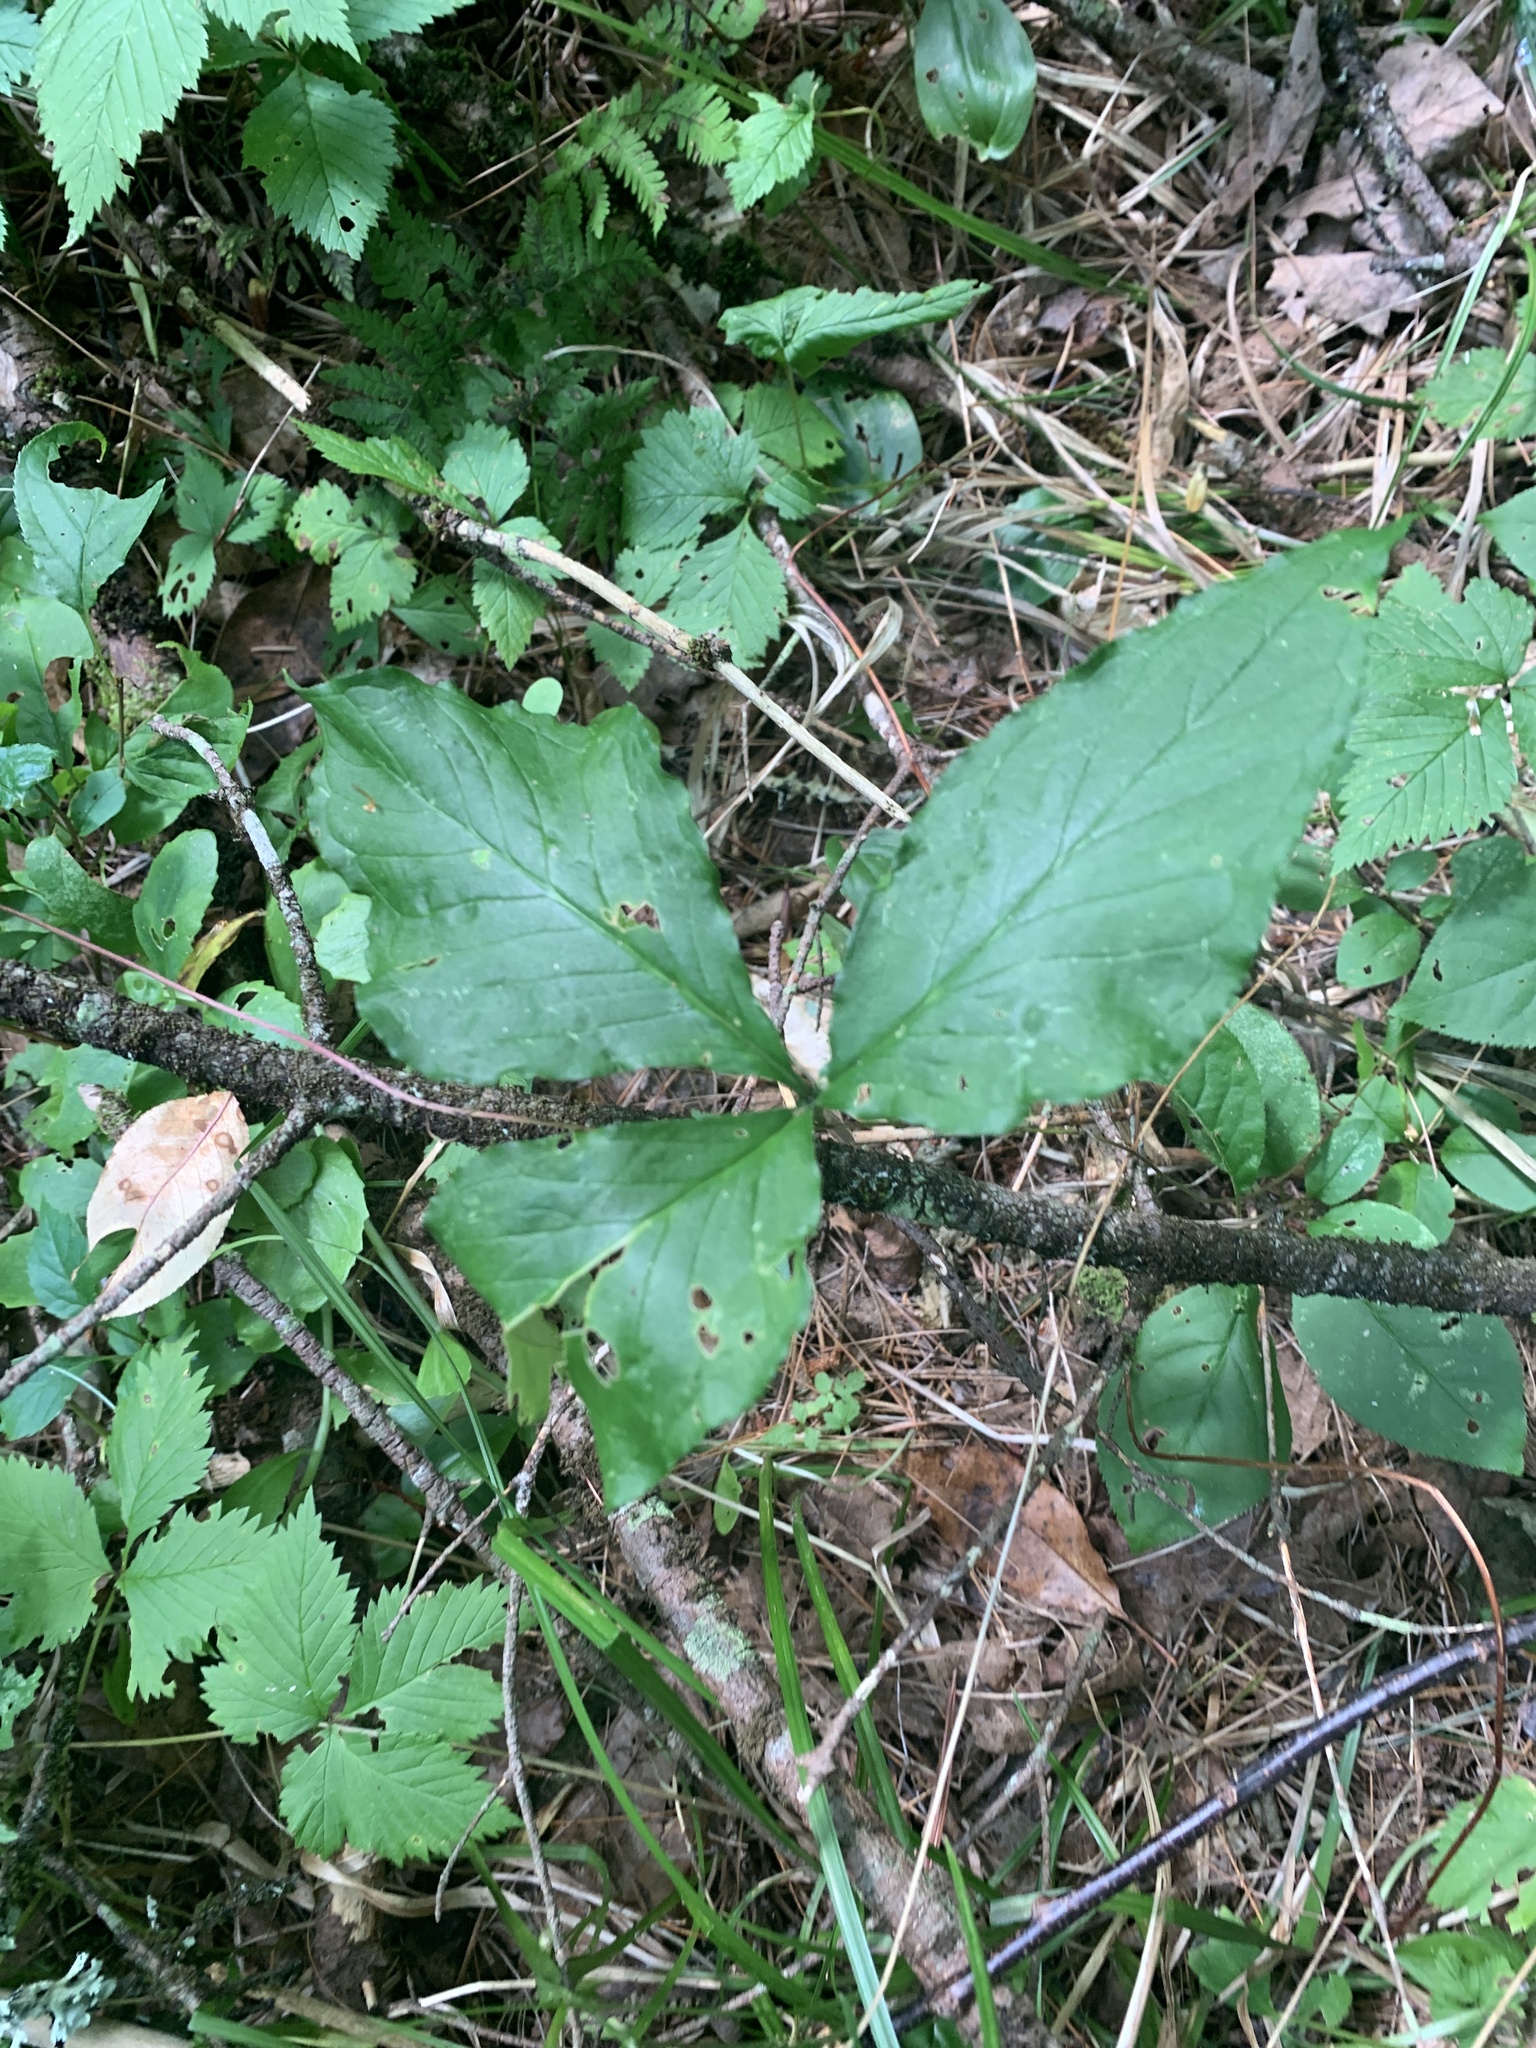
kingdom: Plantae
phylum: Tracheophyta
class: Liliopsida
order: Alismatales
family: Araceae
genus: Arisaema
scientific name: Arisaema triphyllum
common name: Jack-in-the-pulpit
